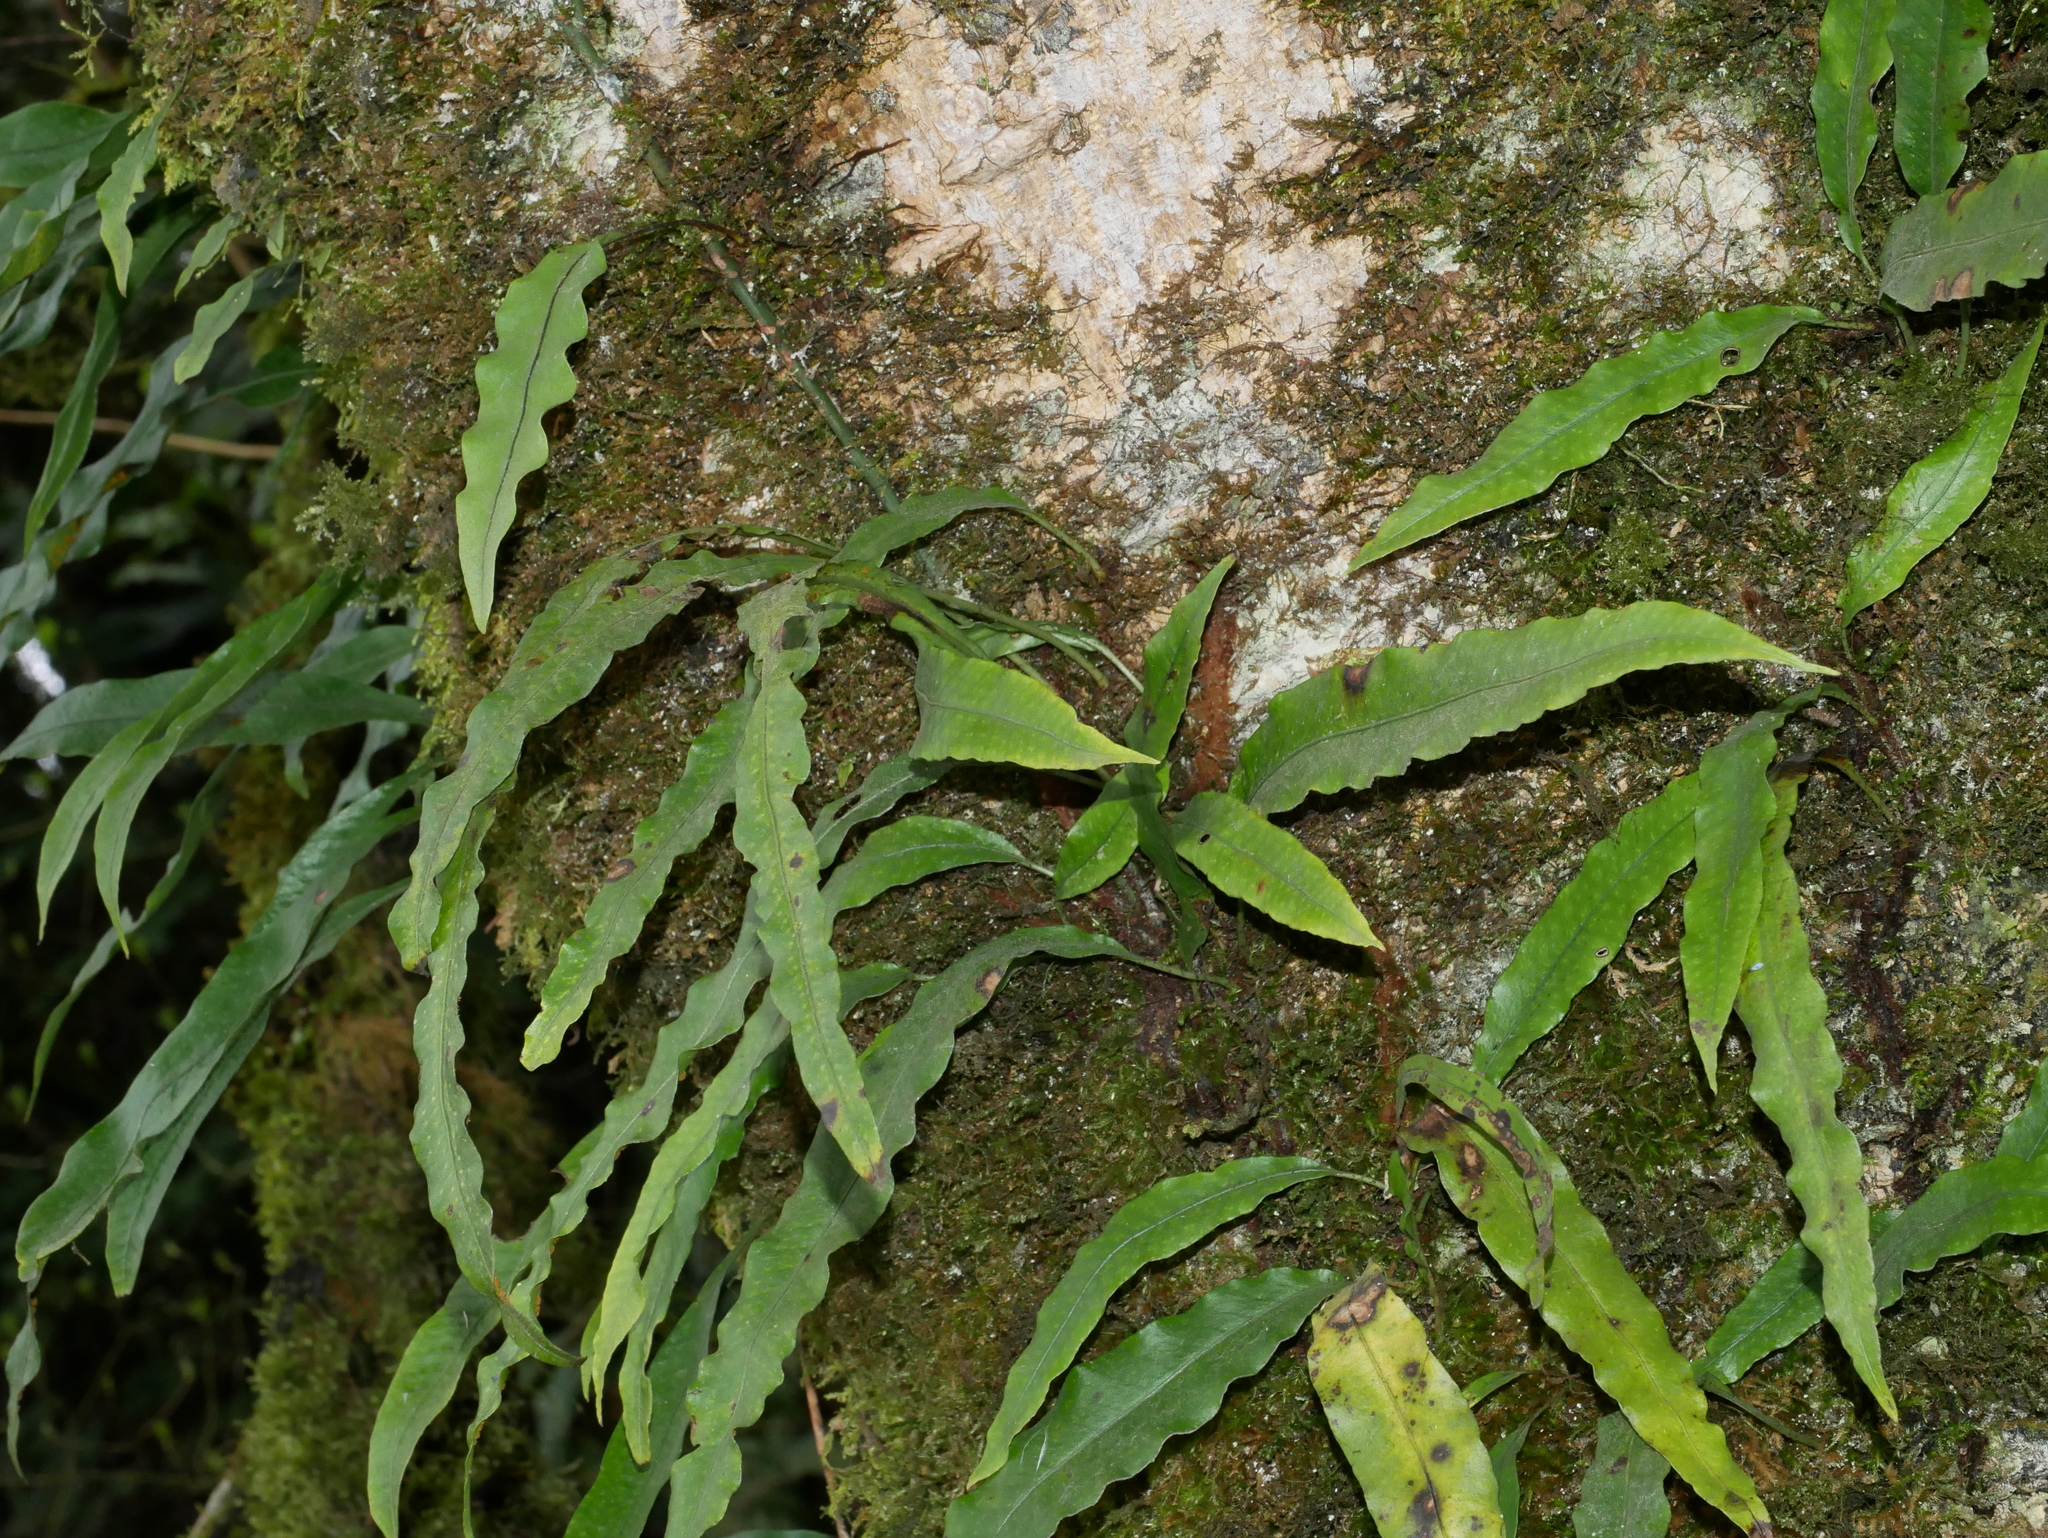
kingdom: Plantae
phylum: Tracheophyta
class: Polypodiopsida
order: Polypodiales
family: Polypodiaceae
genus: Lepisorus
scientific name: Lepisorus superficialis
